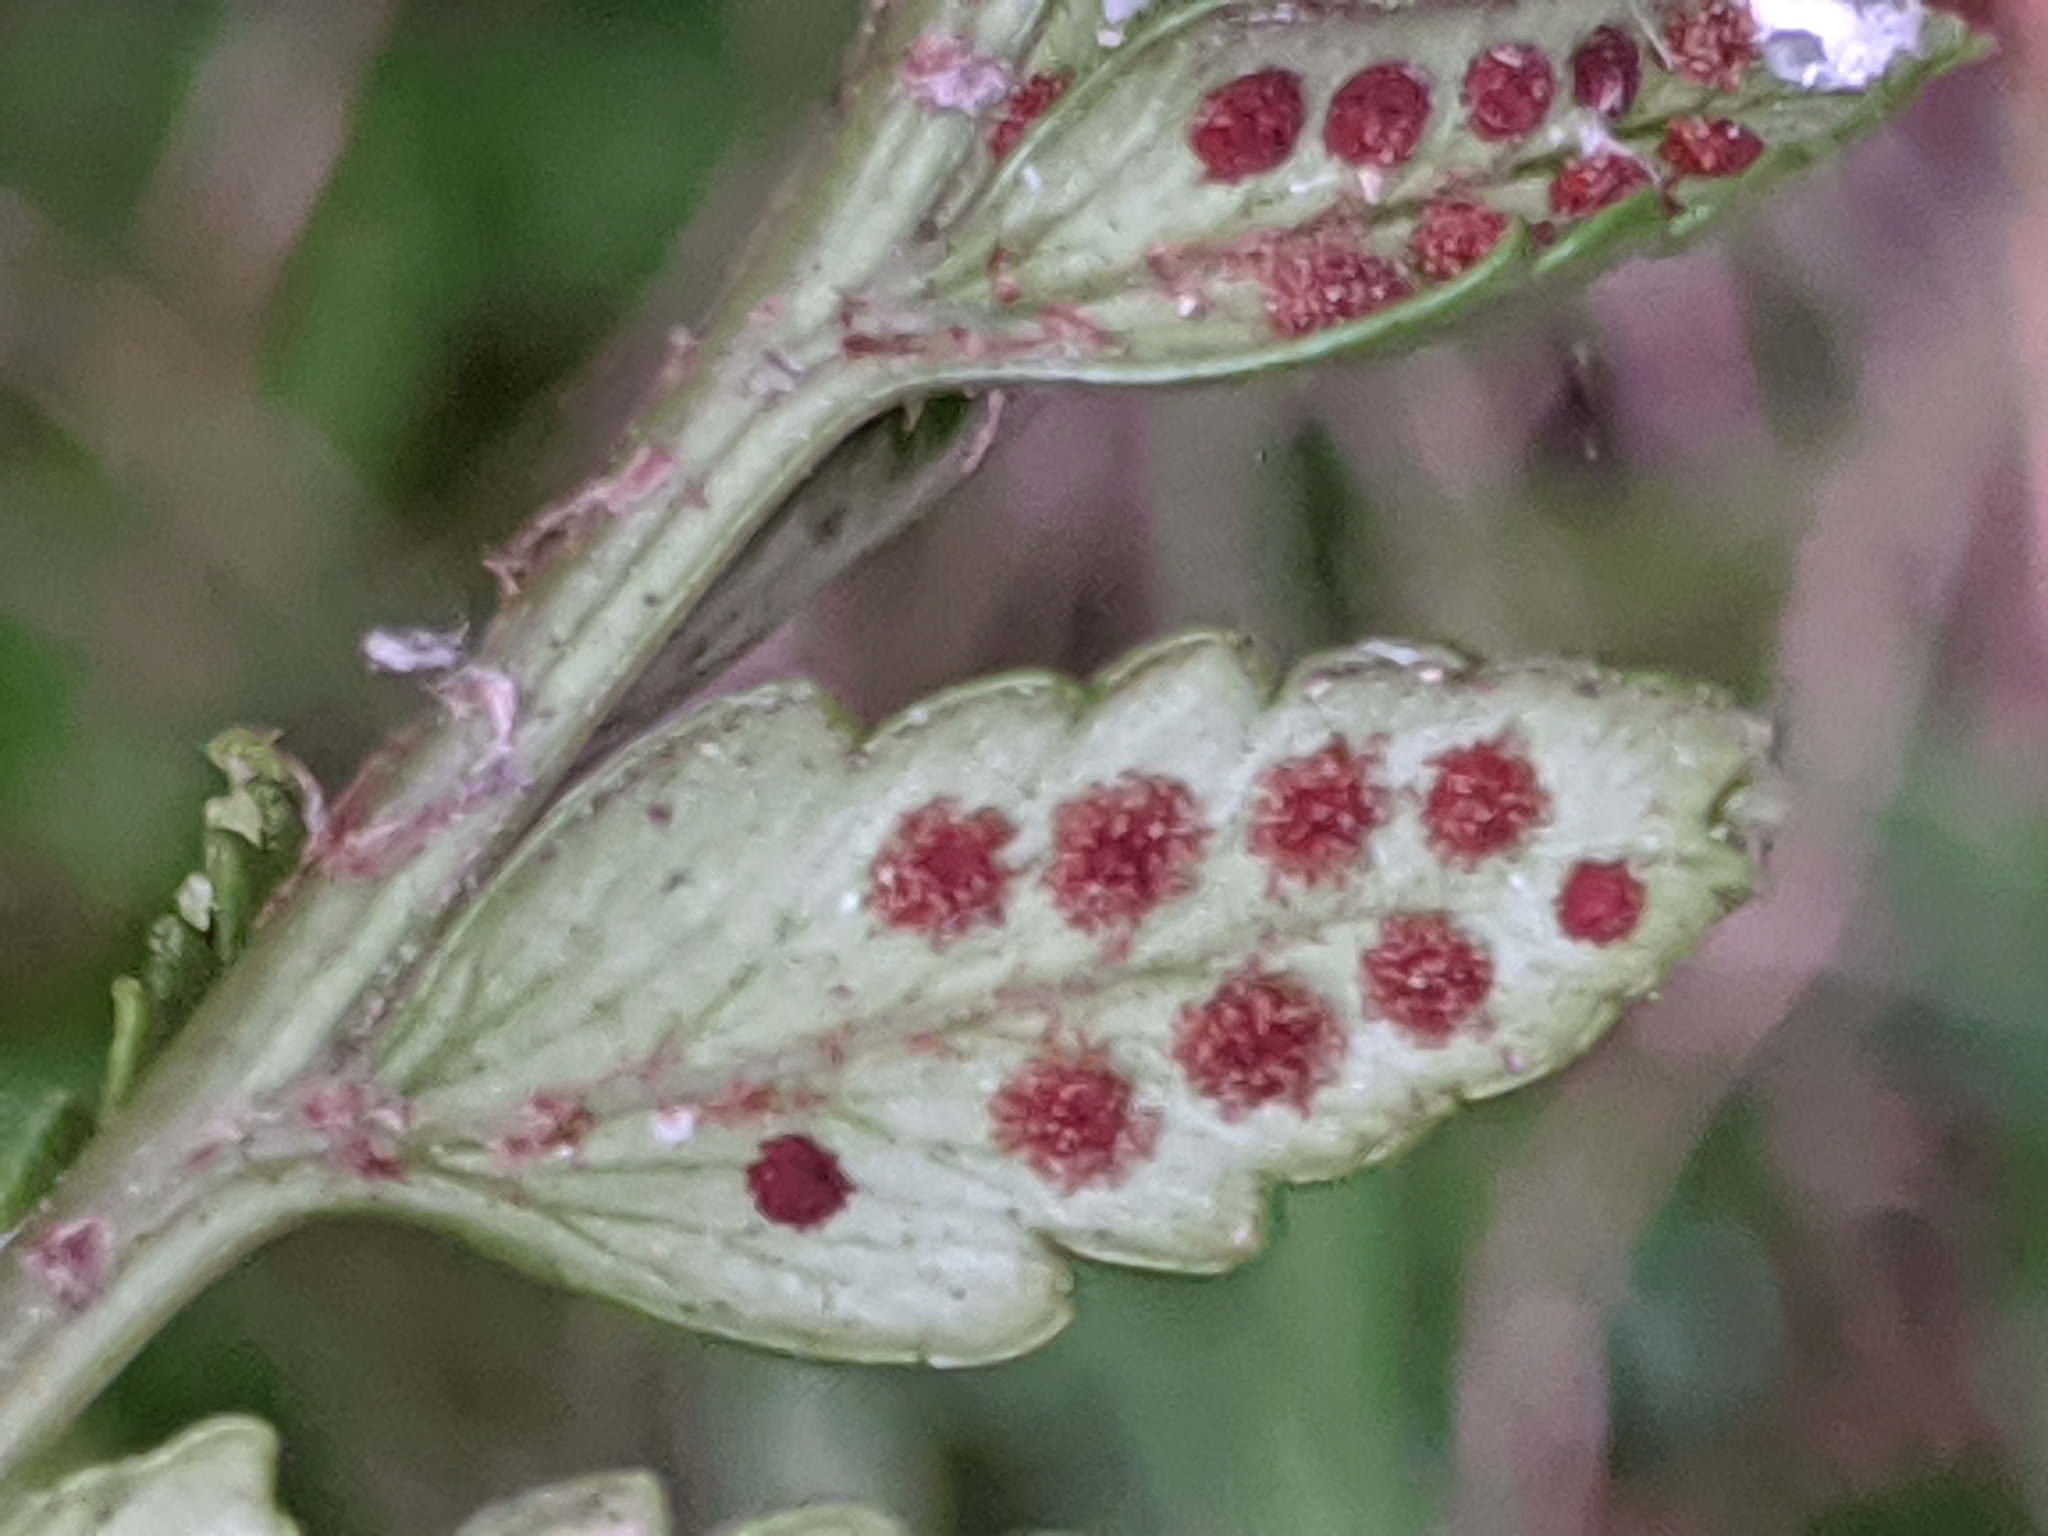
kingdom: Plantae
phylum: Tracheophyta
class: Polypodiopsida
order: Polypodiales
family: Dryopteridaceae
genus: Rumohra
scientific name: Rumohra adiantiformis
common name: Leather fern
